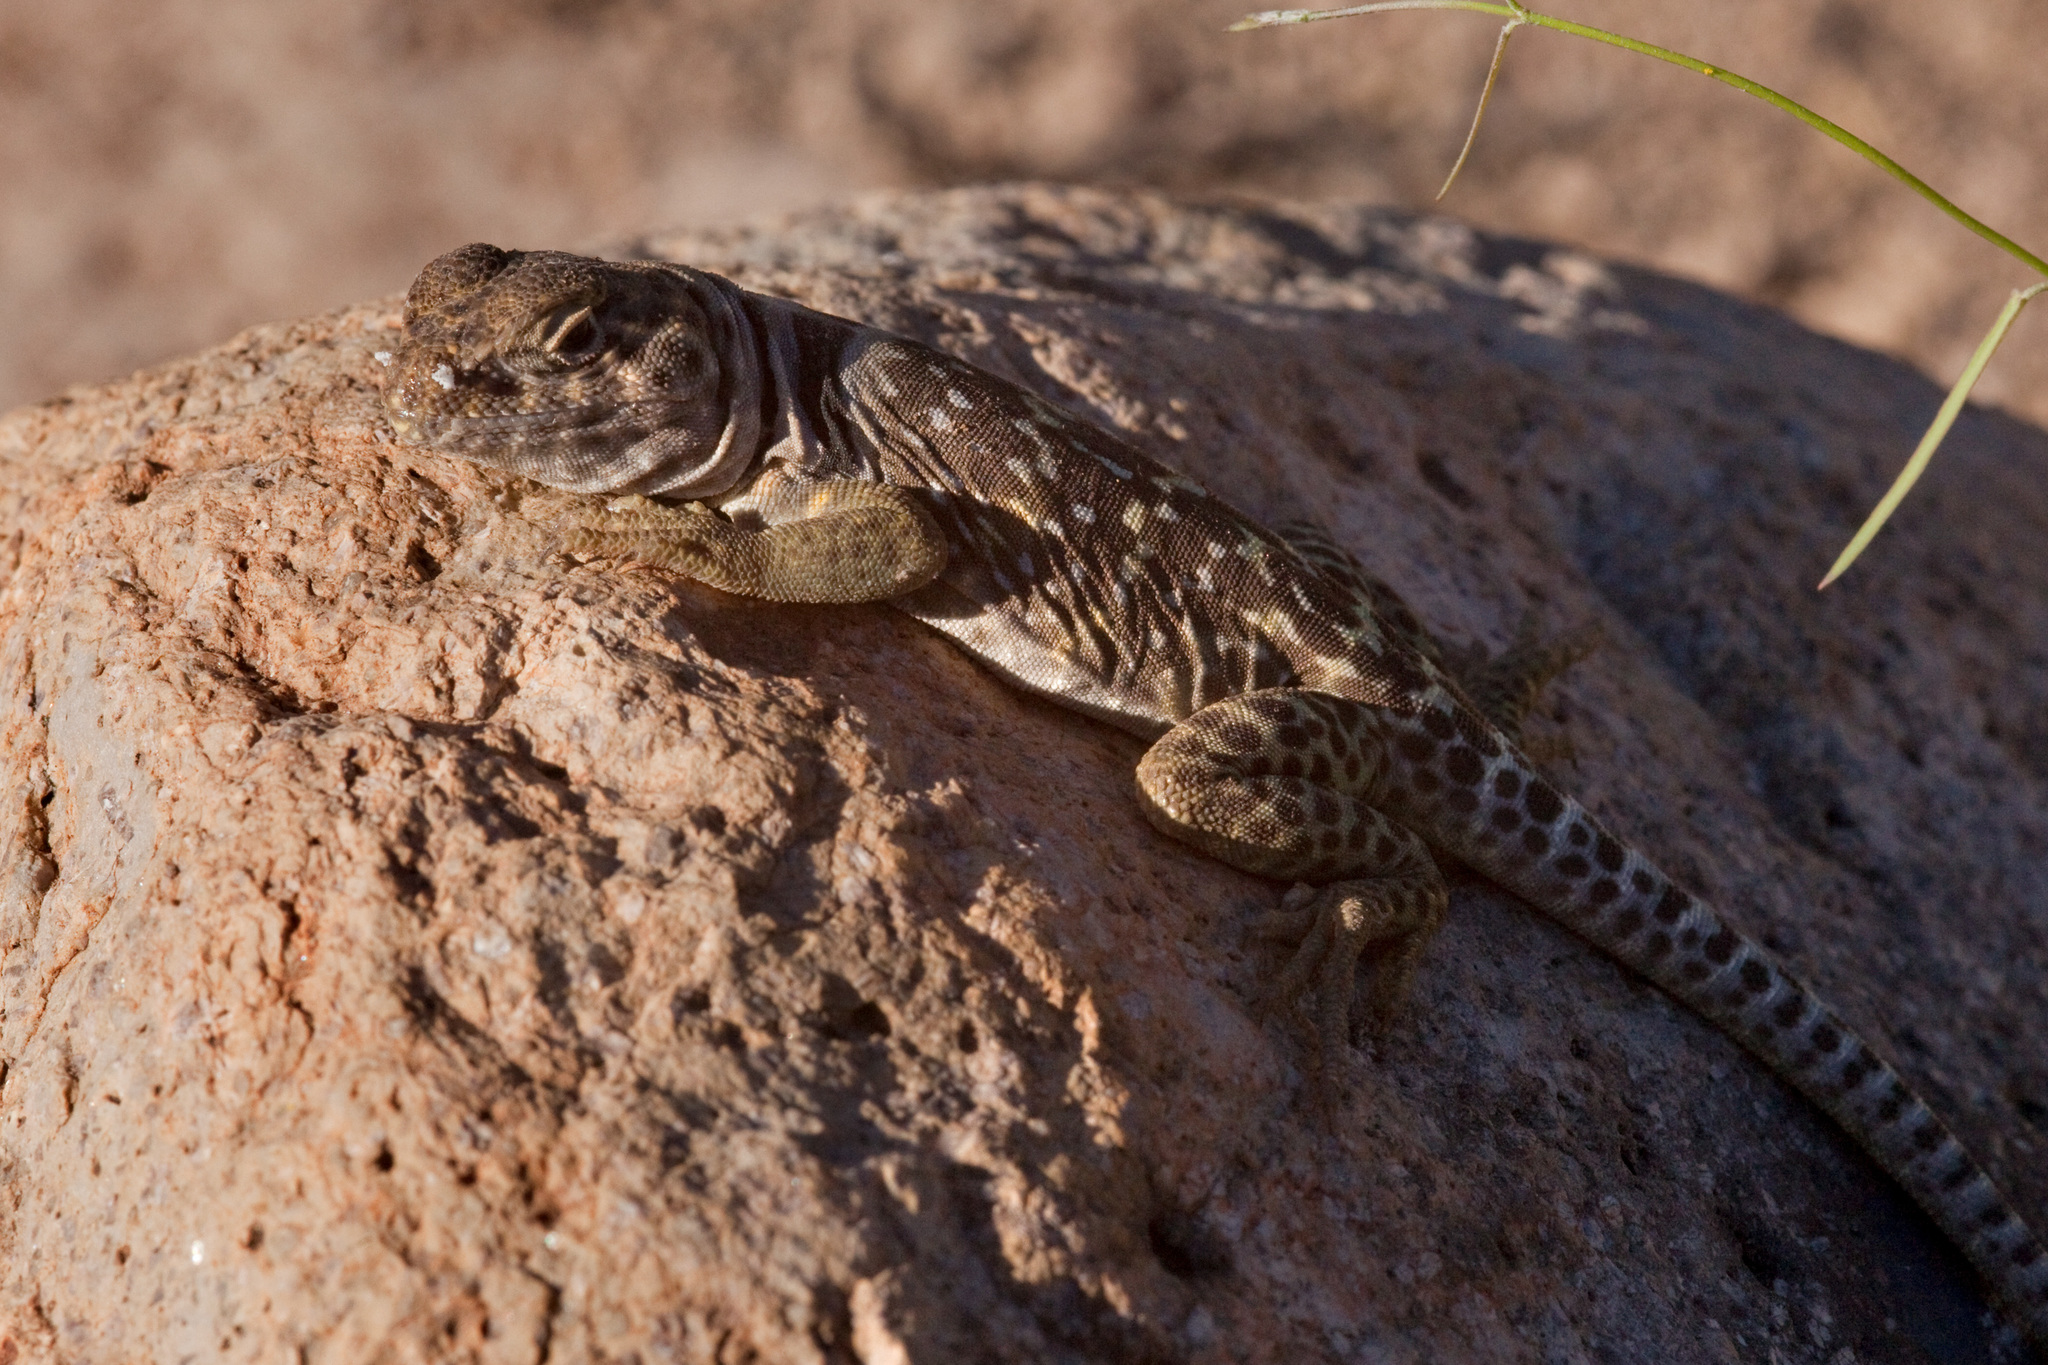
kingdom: Animalia
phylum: Chordata
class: Squamata
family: Crotaphytidae
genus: Crotaphytus
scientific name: Crotaphytus collaris
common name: Collared lizard
